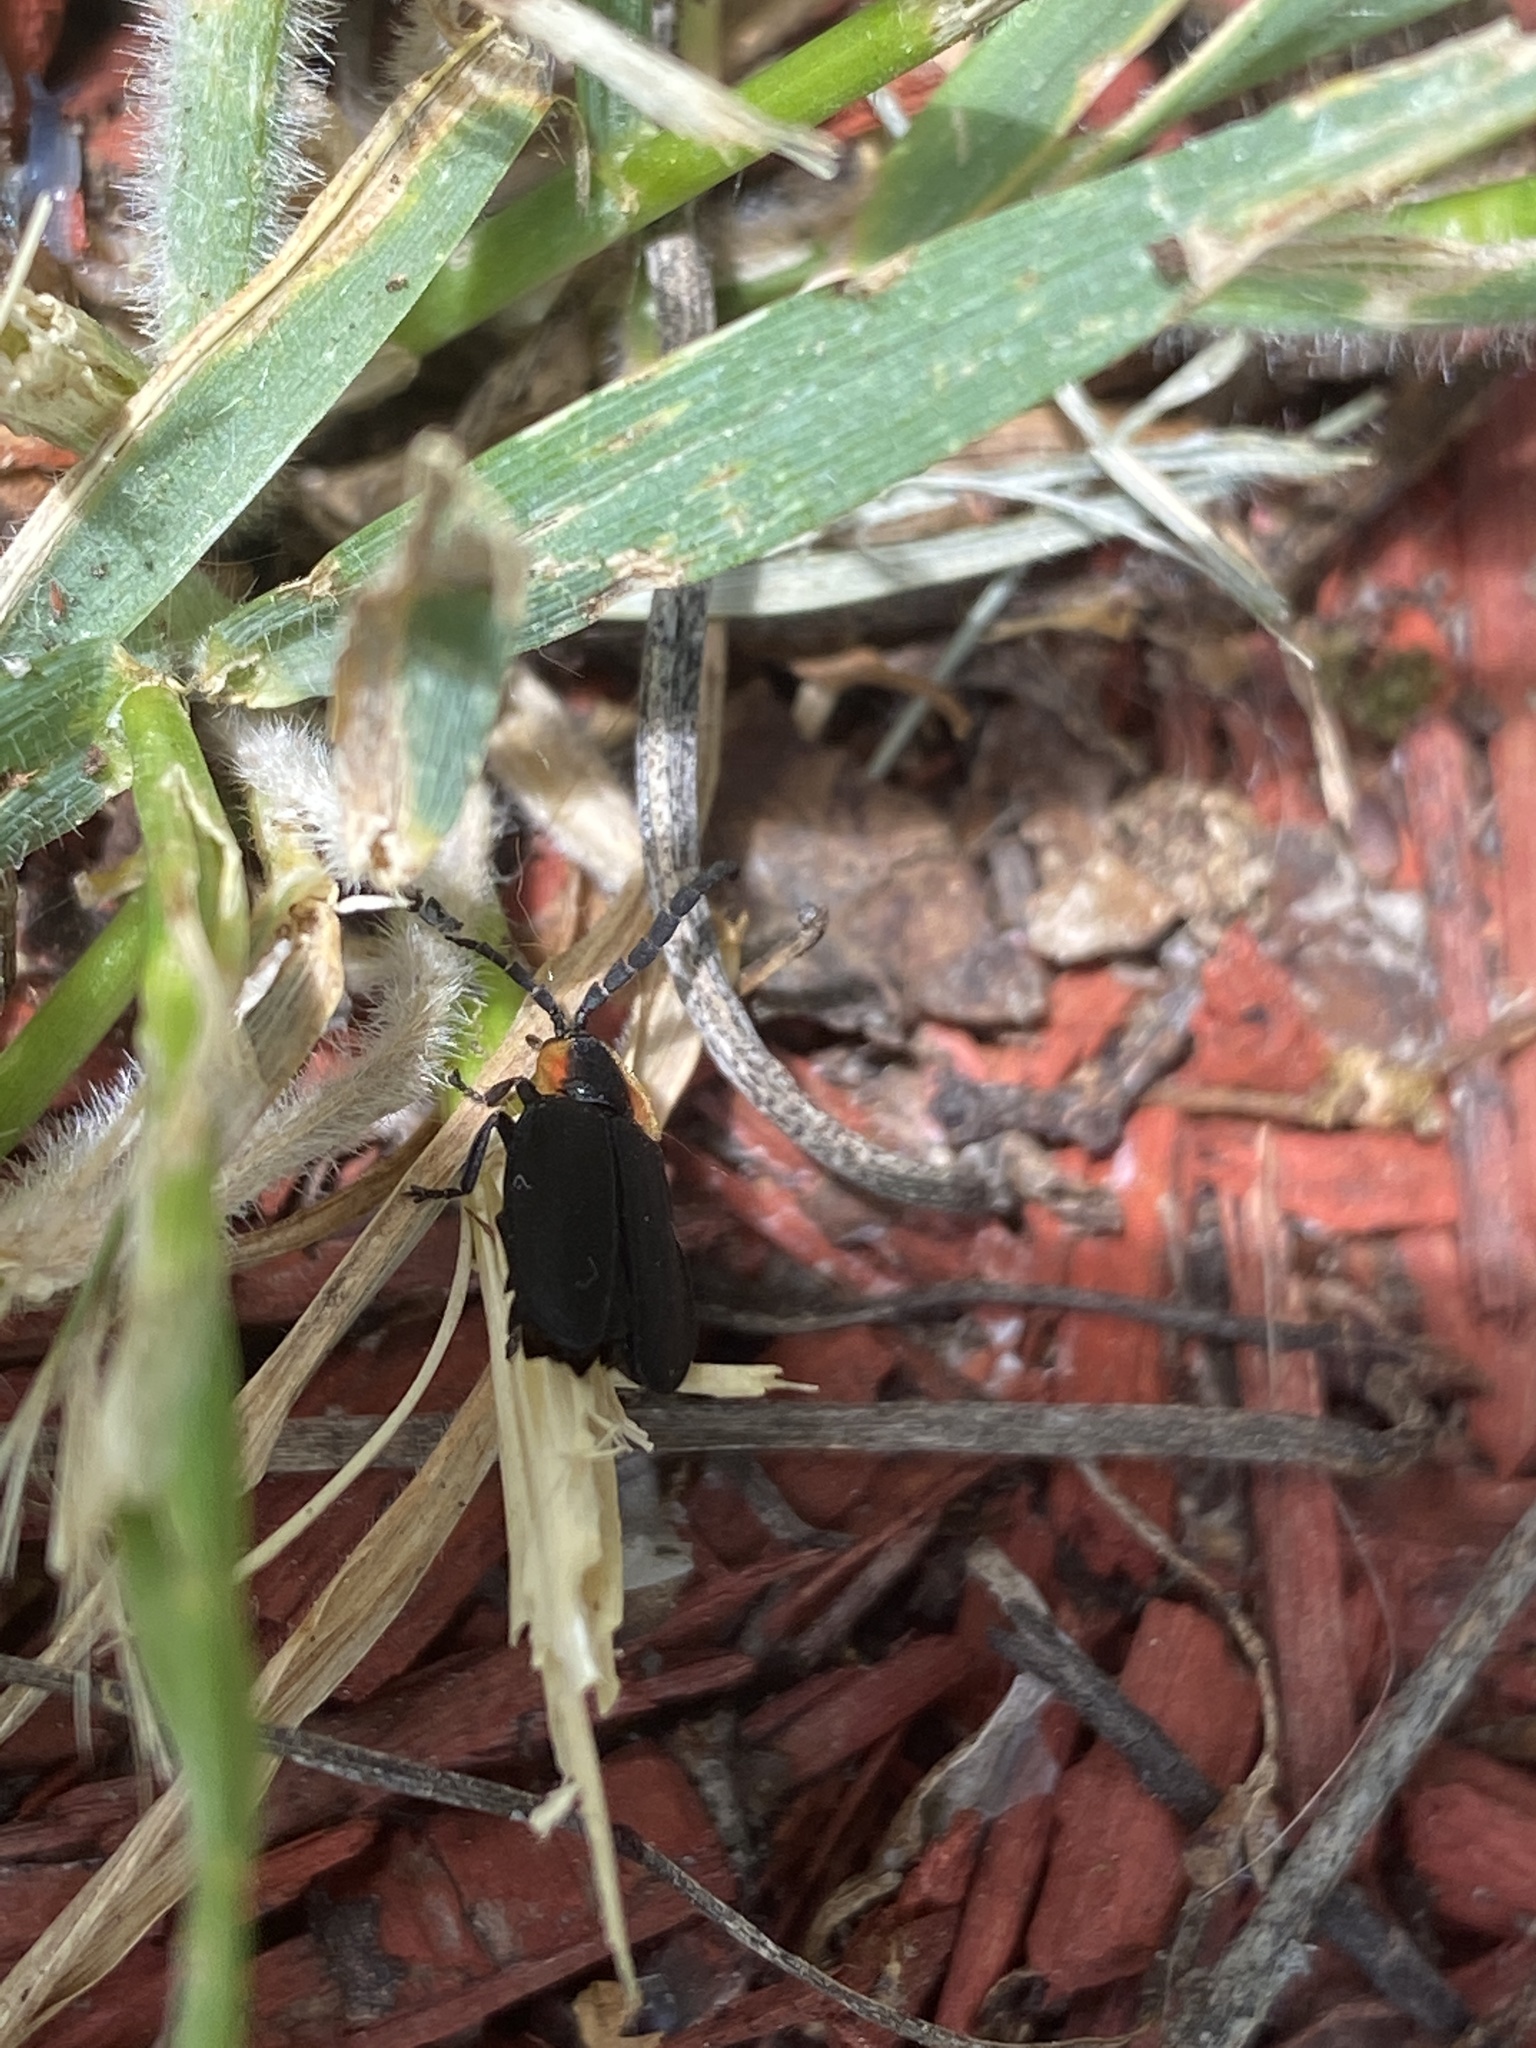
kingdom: Animalia
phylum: Arthropoda
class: Insecta
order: Coleoptera
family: Lampyridae
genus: Lucidota
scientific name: Lucidota atra
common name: Black firefly
